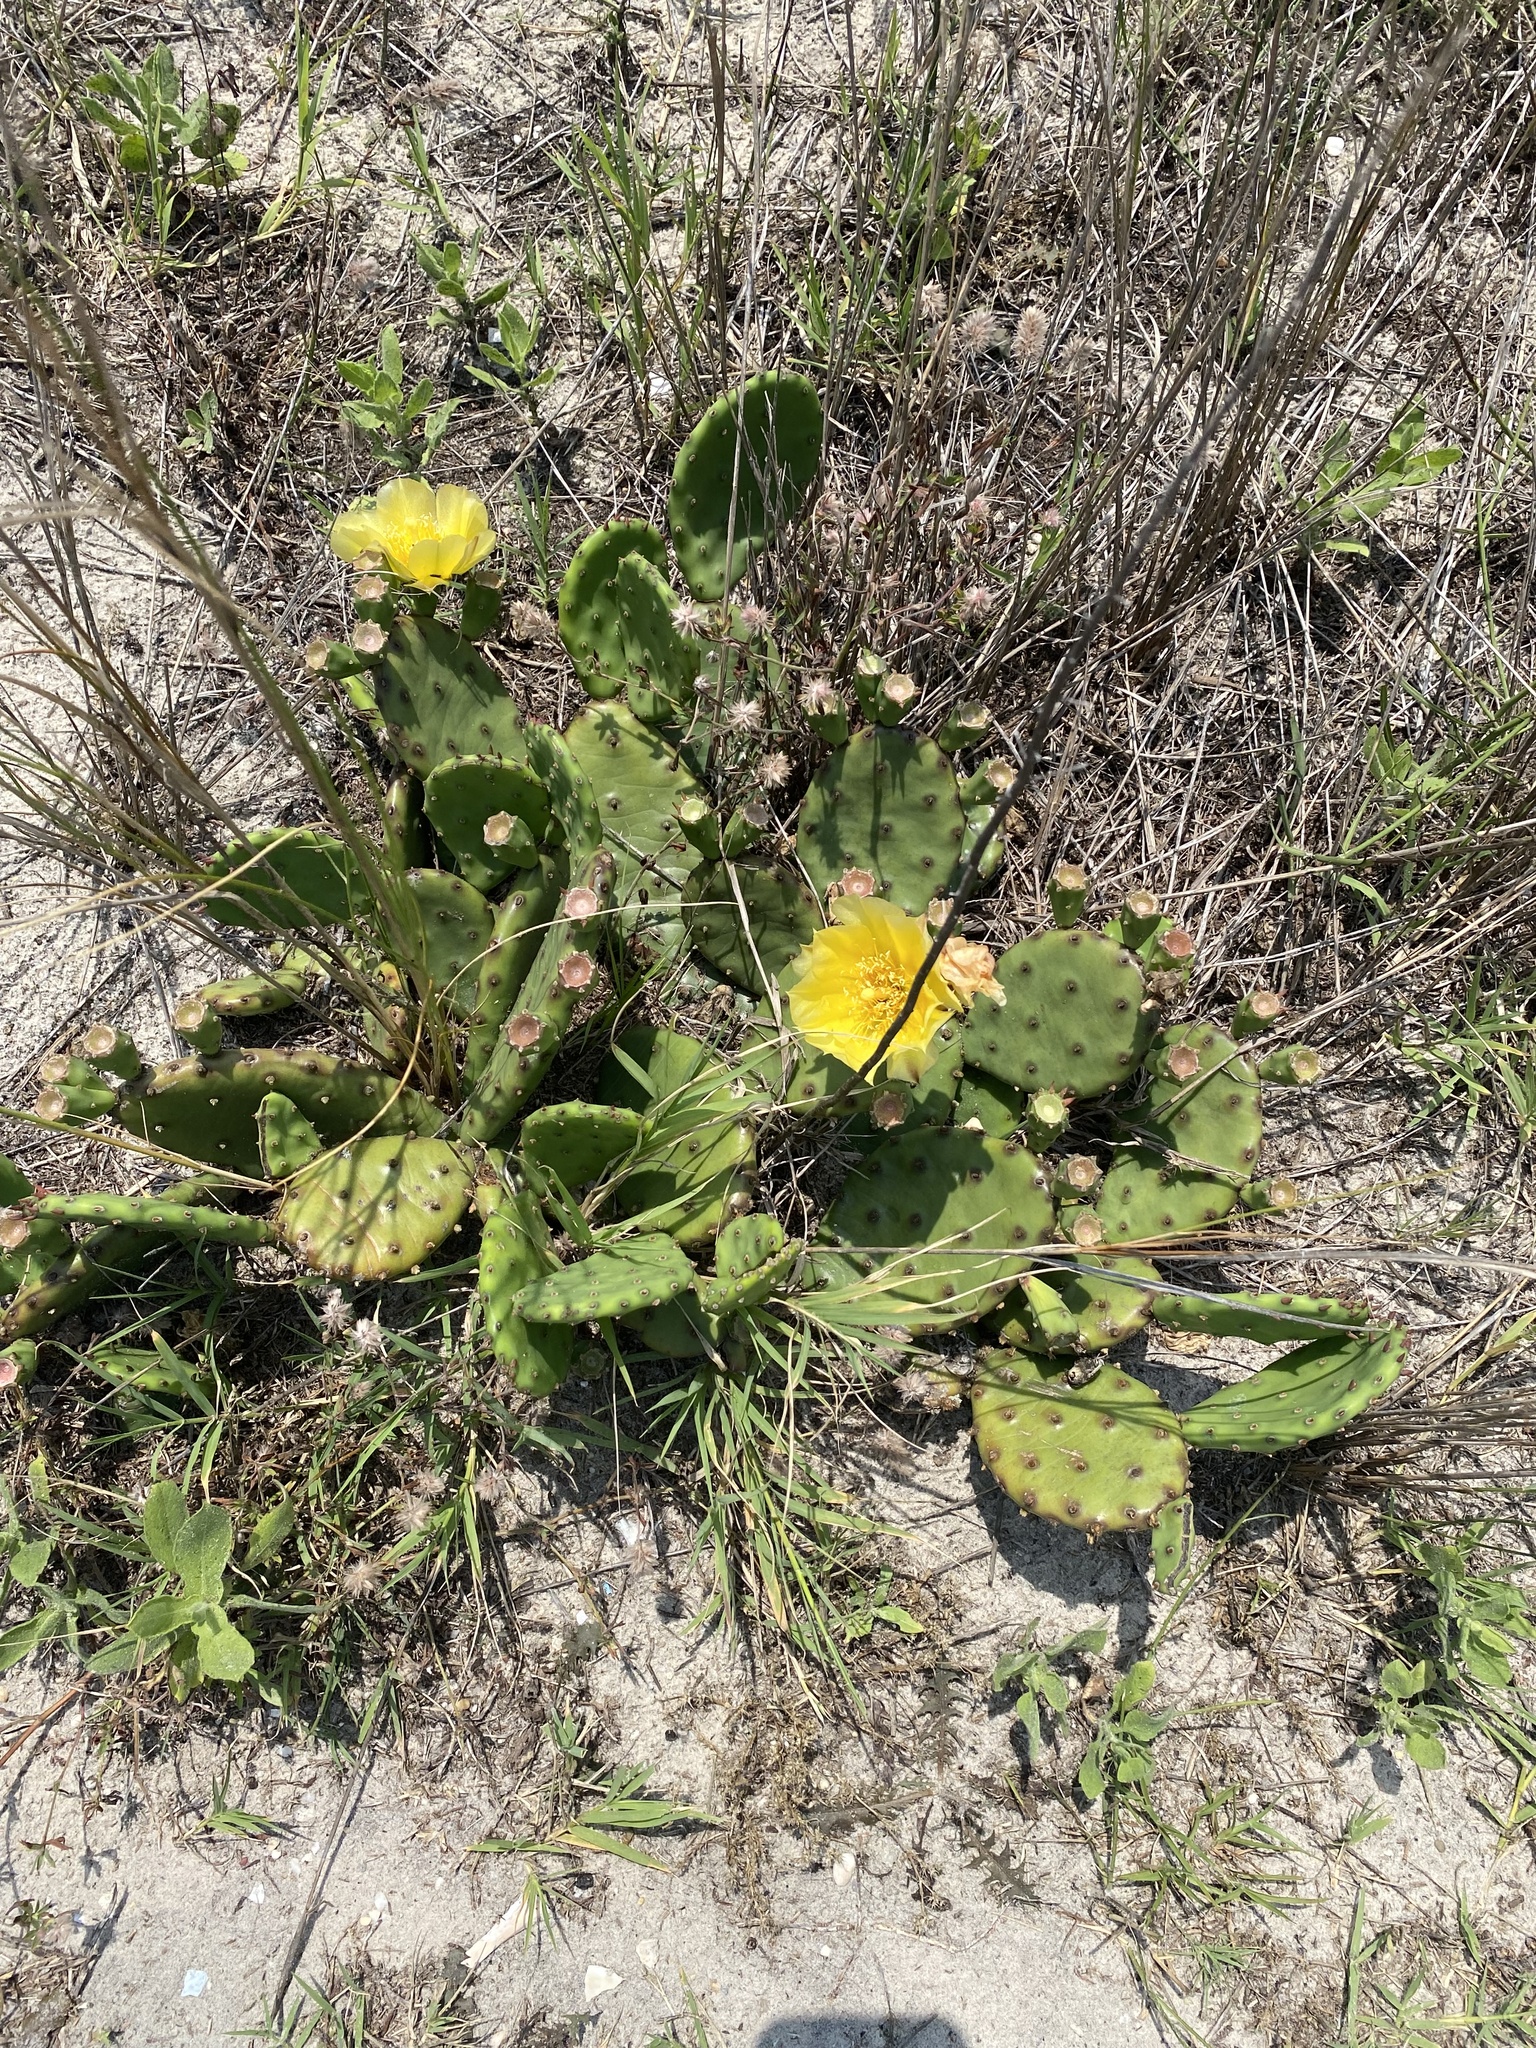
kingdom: Plantae
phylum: Tracheophyta
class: Magnoliopsida
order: Caryophyllales
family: Cactaceae
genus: Opuntia
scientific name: Opuntia humifusa
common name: Eastern prickly-pear
